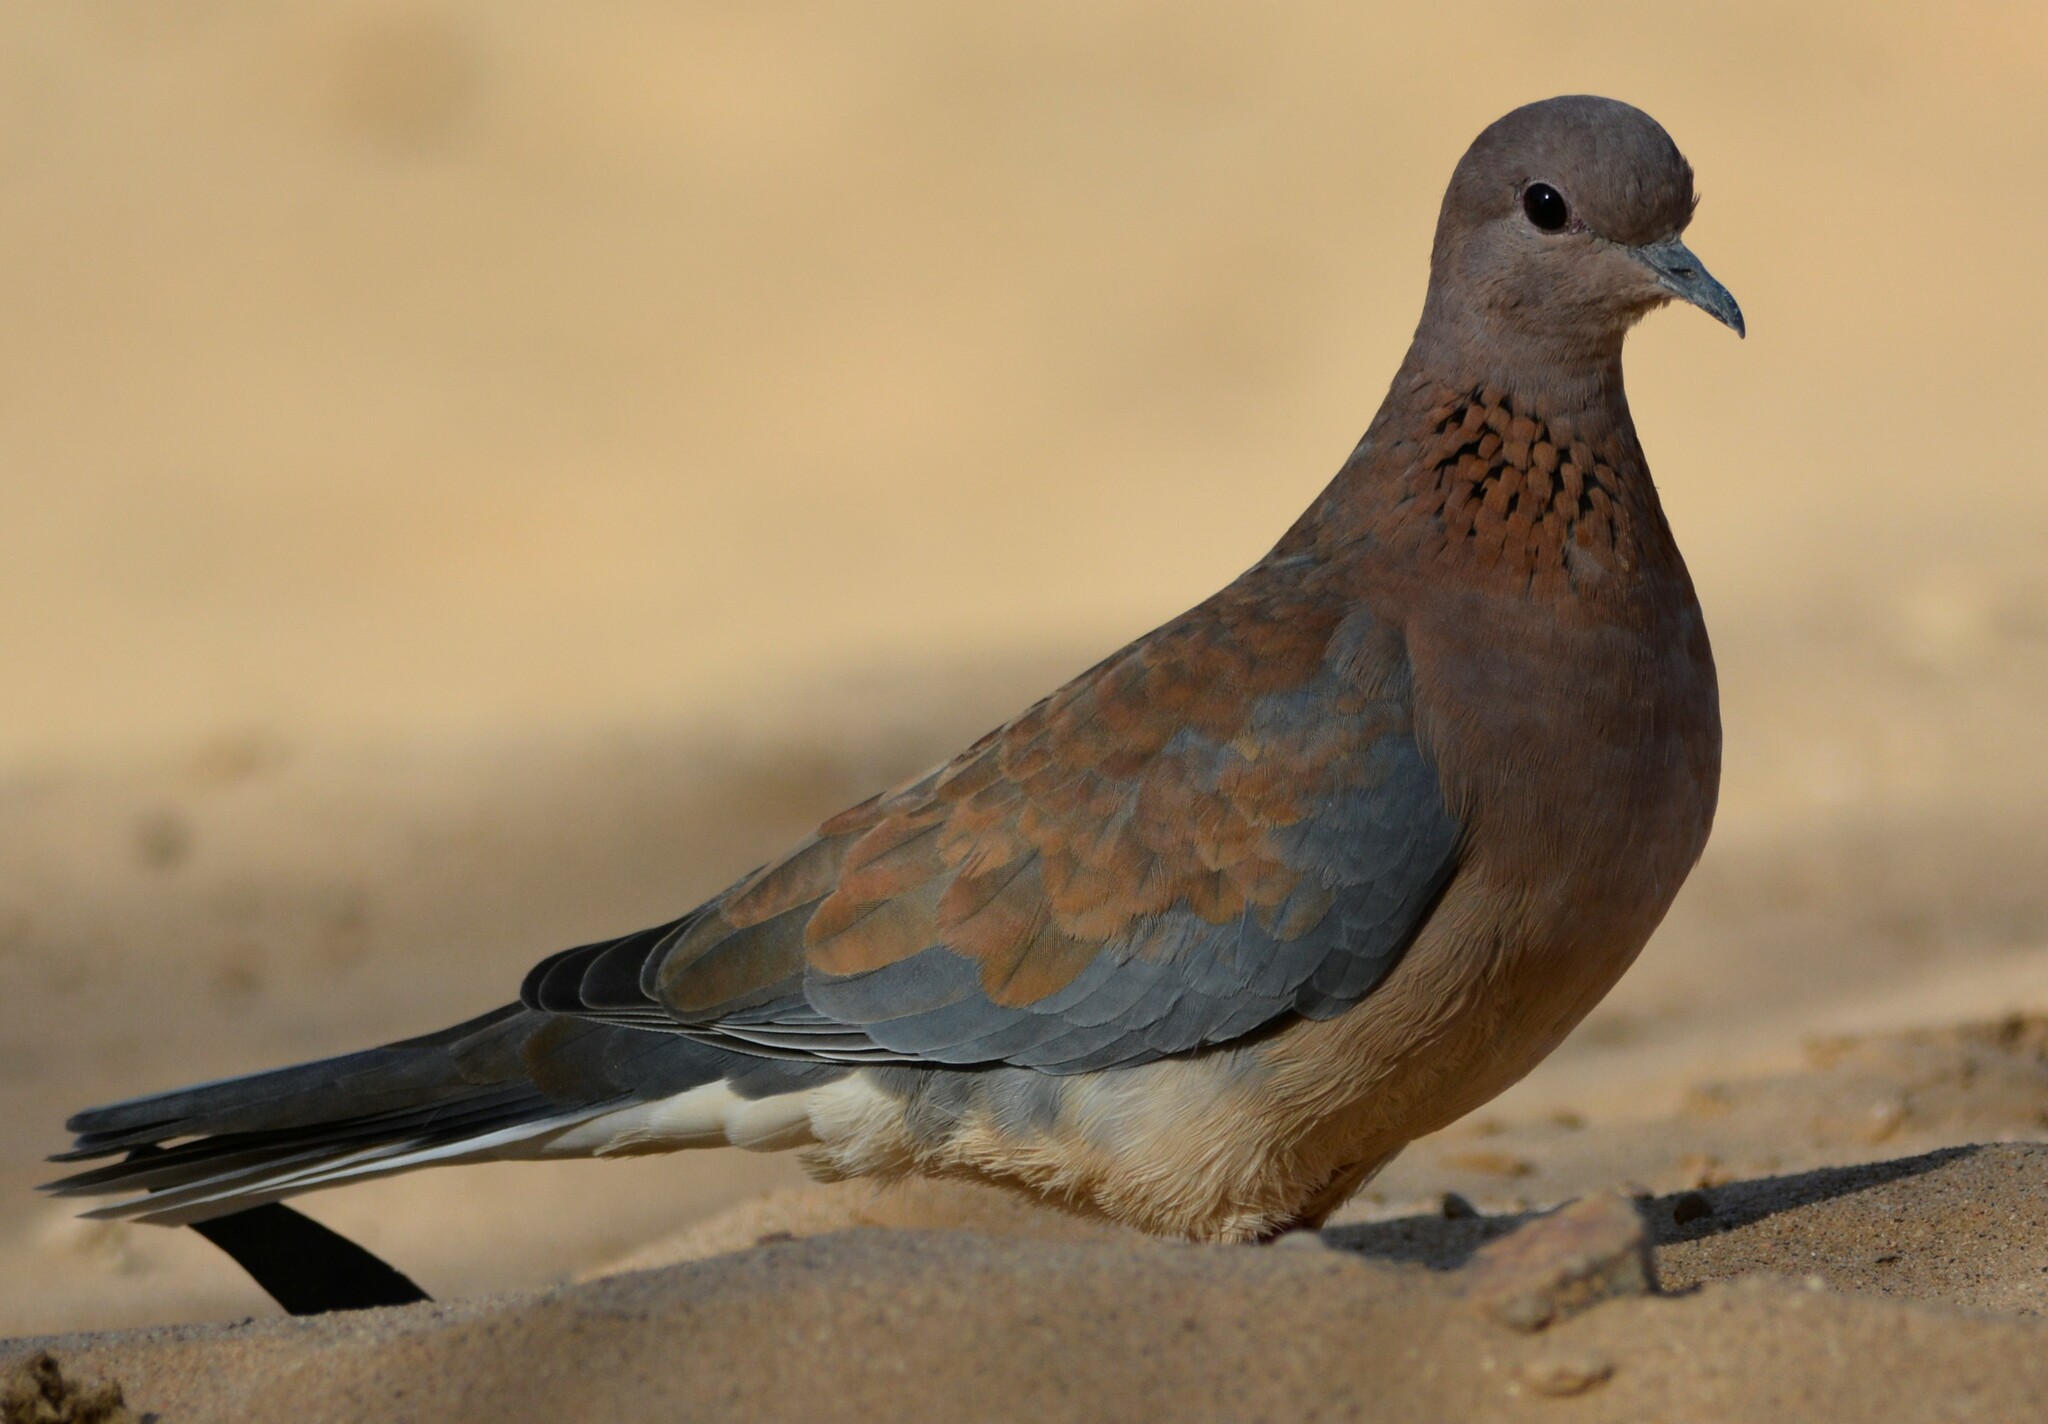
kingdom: Animalia
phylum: Chordata
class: Aves
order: Columbiformes
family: Columbidae
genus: Spilopelia
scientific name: Spilopelia senegalensis
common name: Laughing dove
